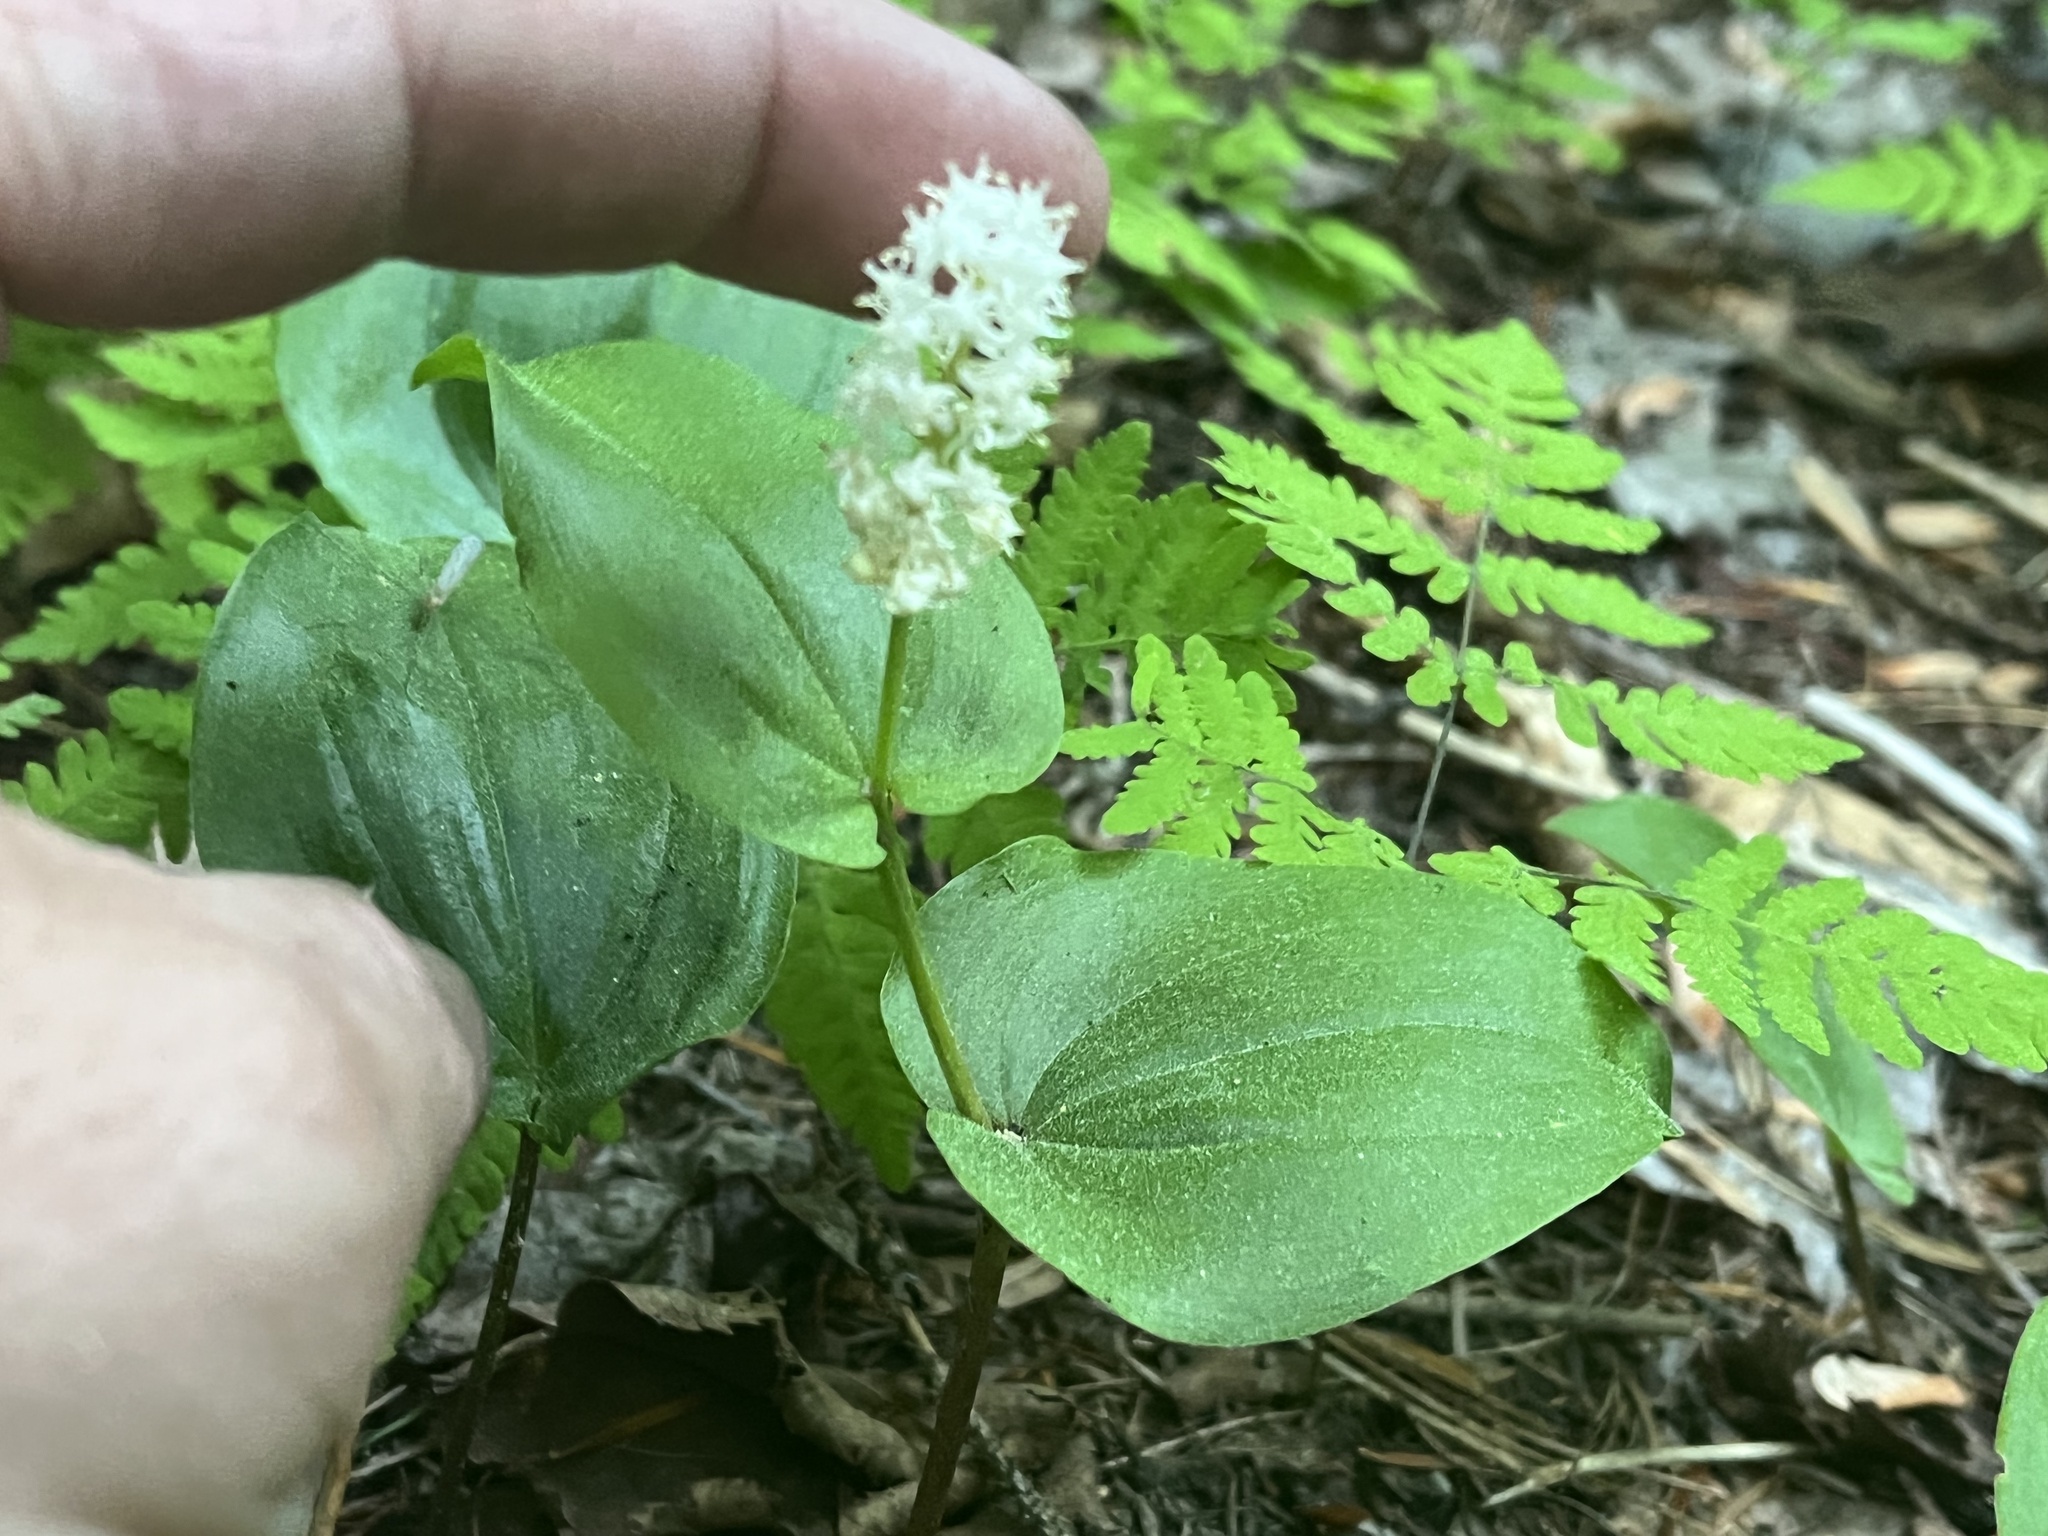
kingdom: Plantae
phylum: Tracheophyta
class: Liliopsida
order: Asparagales
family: Asparagaceae
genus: Maianthemum
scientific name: Maianthemum canadense
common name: False lily-of-the-valley
